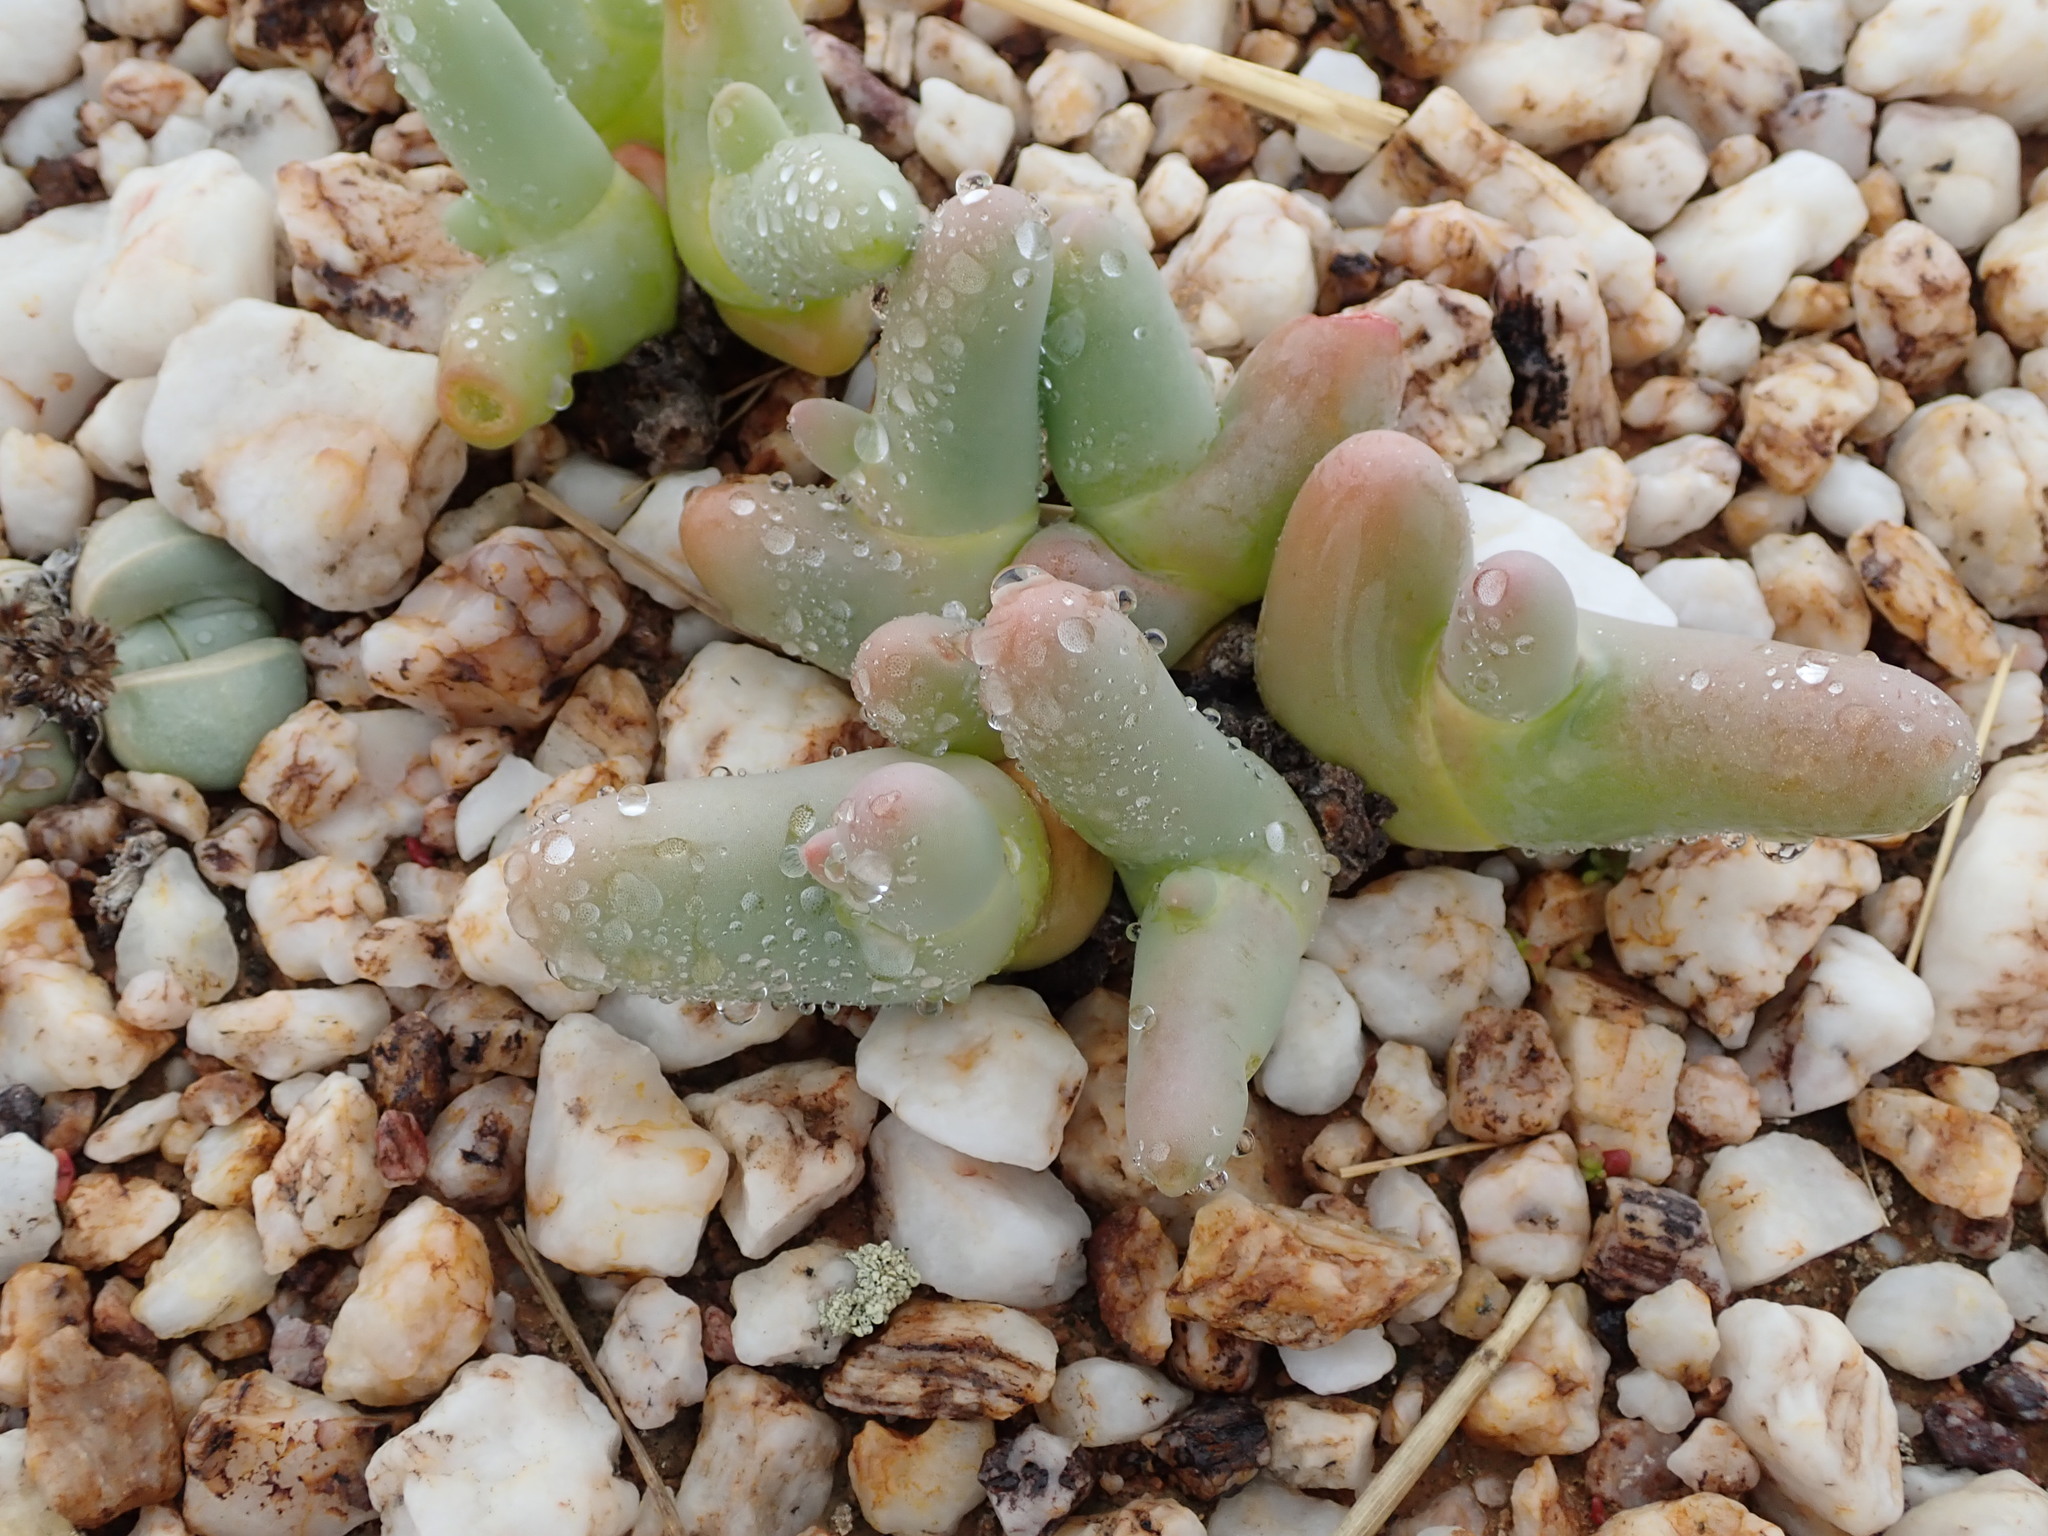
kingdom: Plantae
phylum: Tracheophyta
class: Magnoliopsida
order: Caryophyllales
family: Aizoaceae
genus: Mesembryanthemum
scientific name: Mesembryanthemum digitatum
